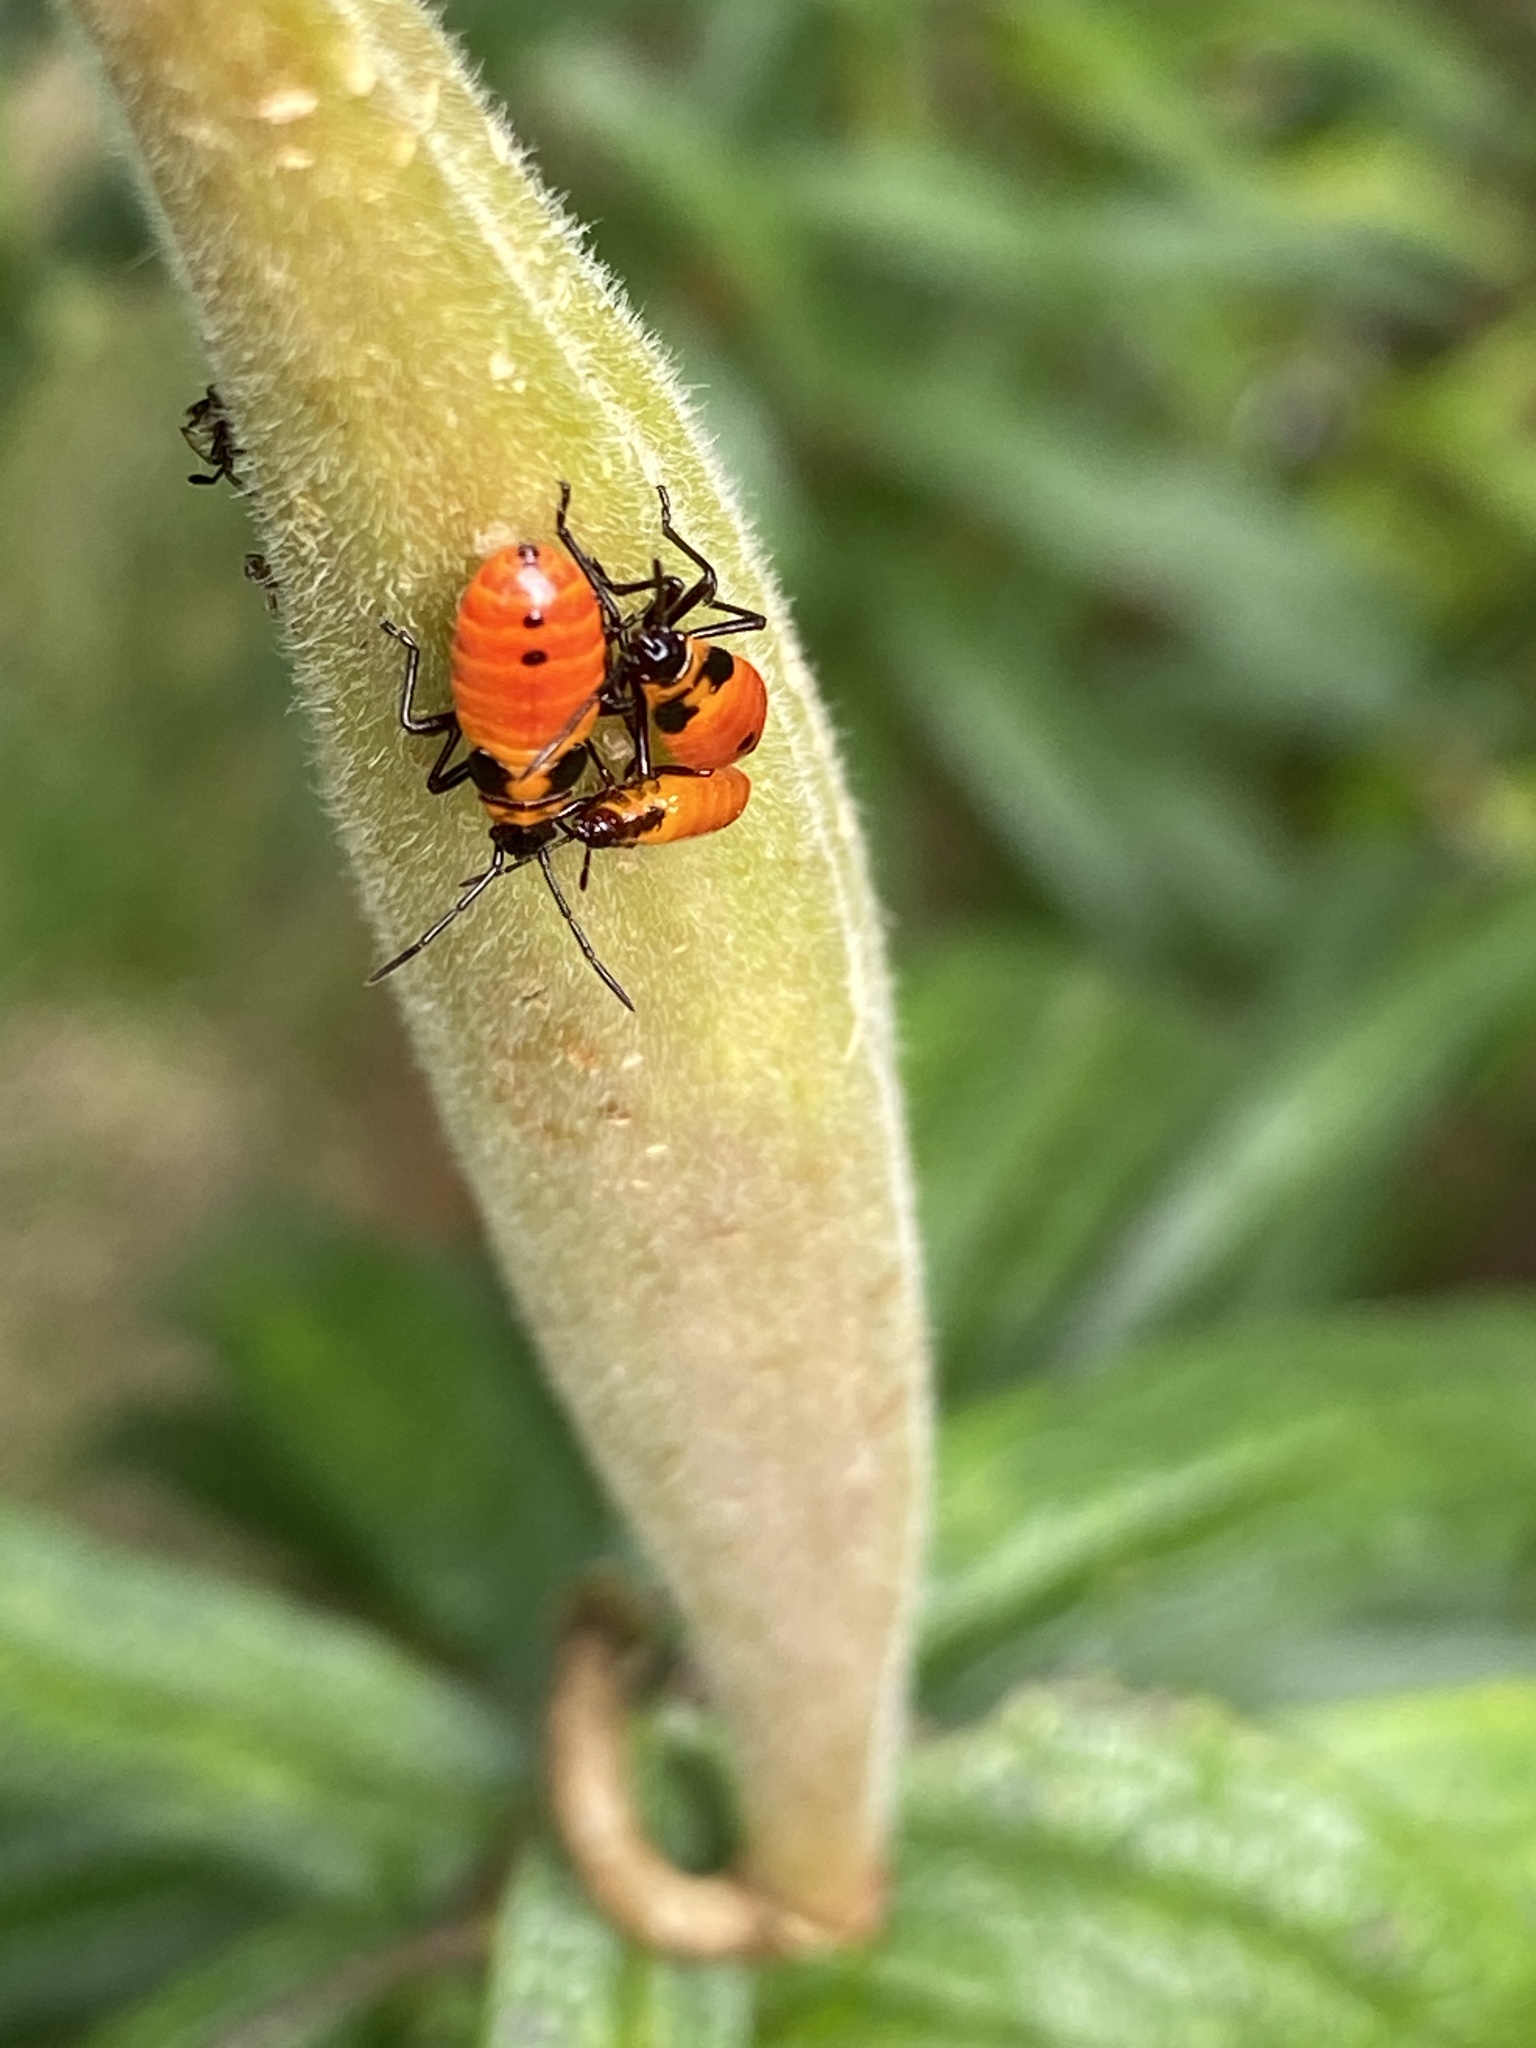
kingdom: Animalia
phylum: Arthropoda
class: Insecta
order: Hemiptera
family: Lygaeidae
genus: Oncopeltus
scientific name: Oncopeltus fasciatus
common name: Large milkweed bug
